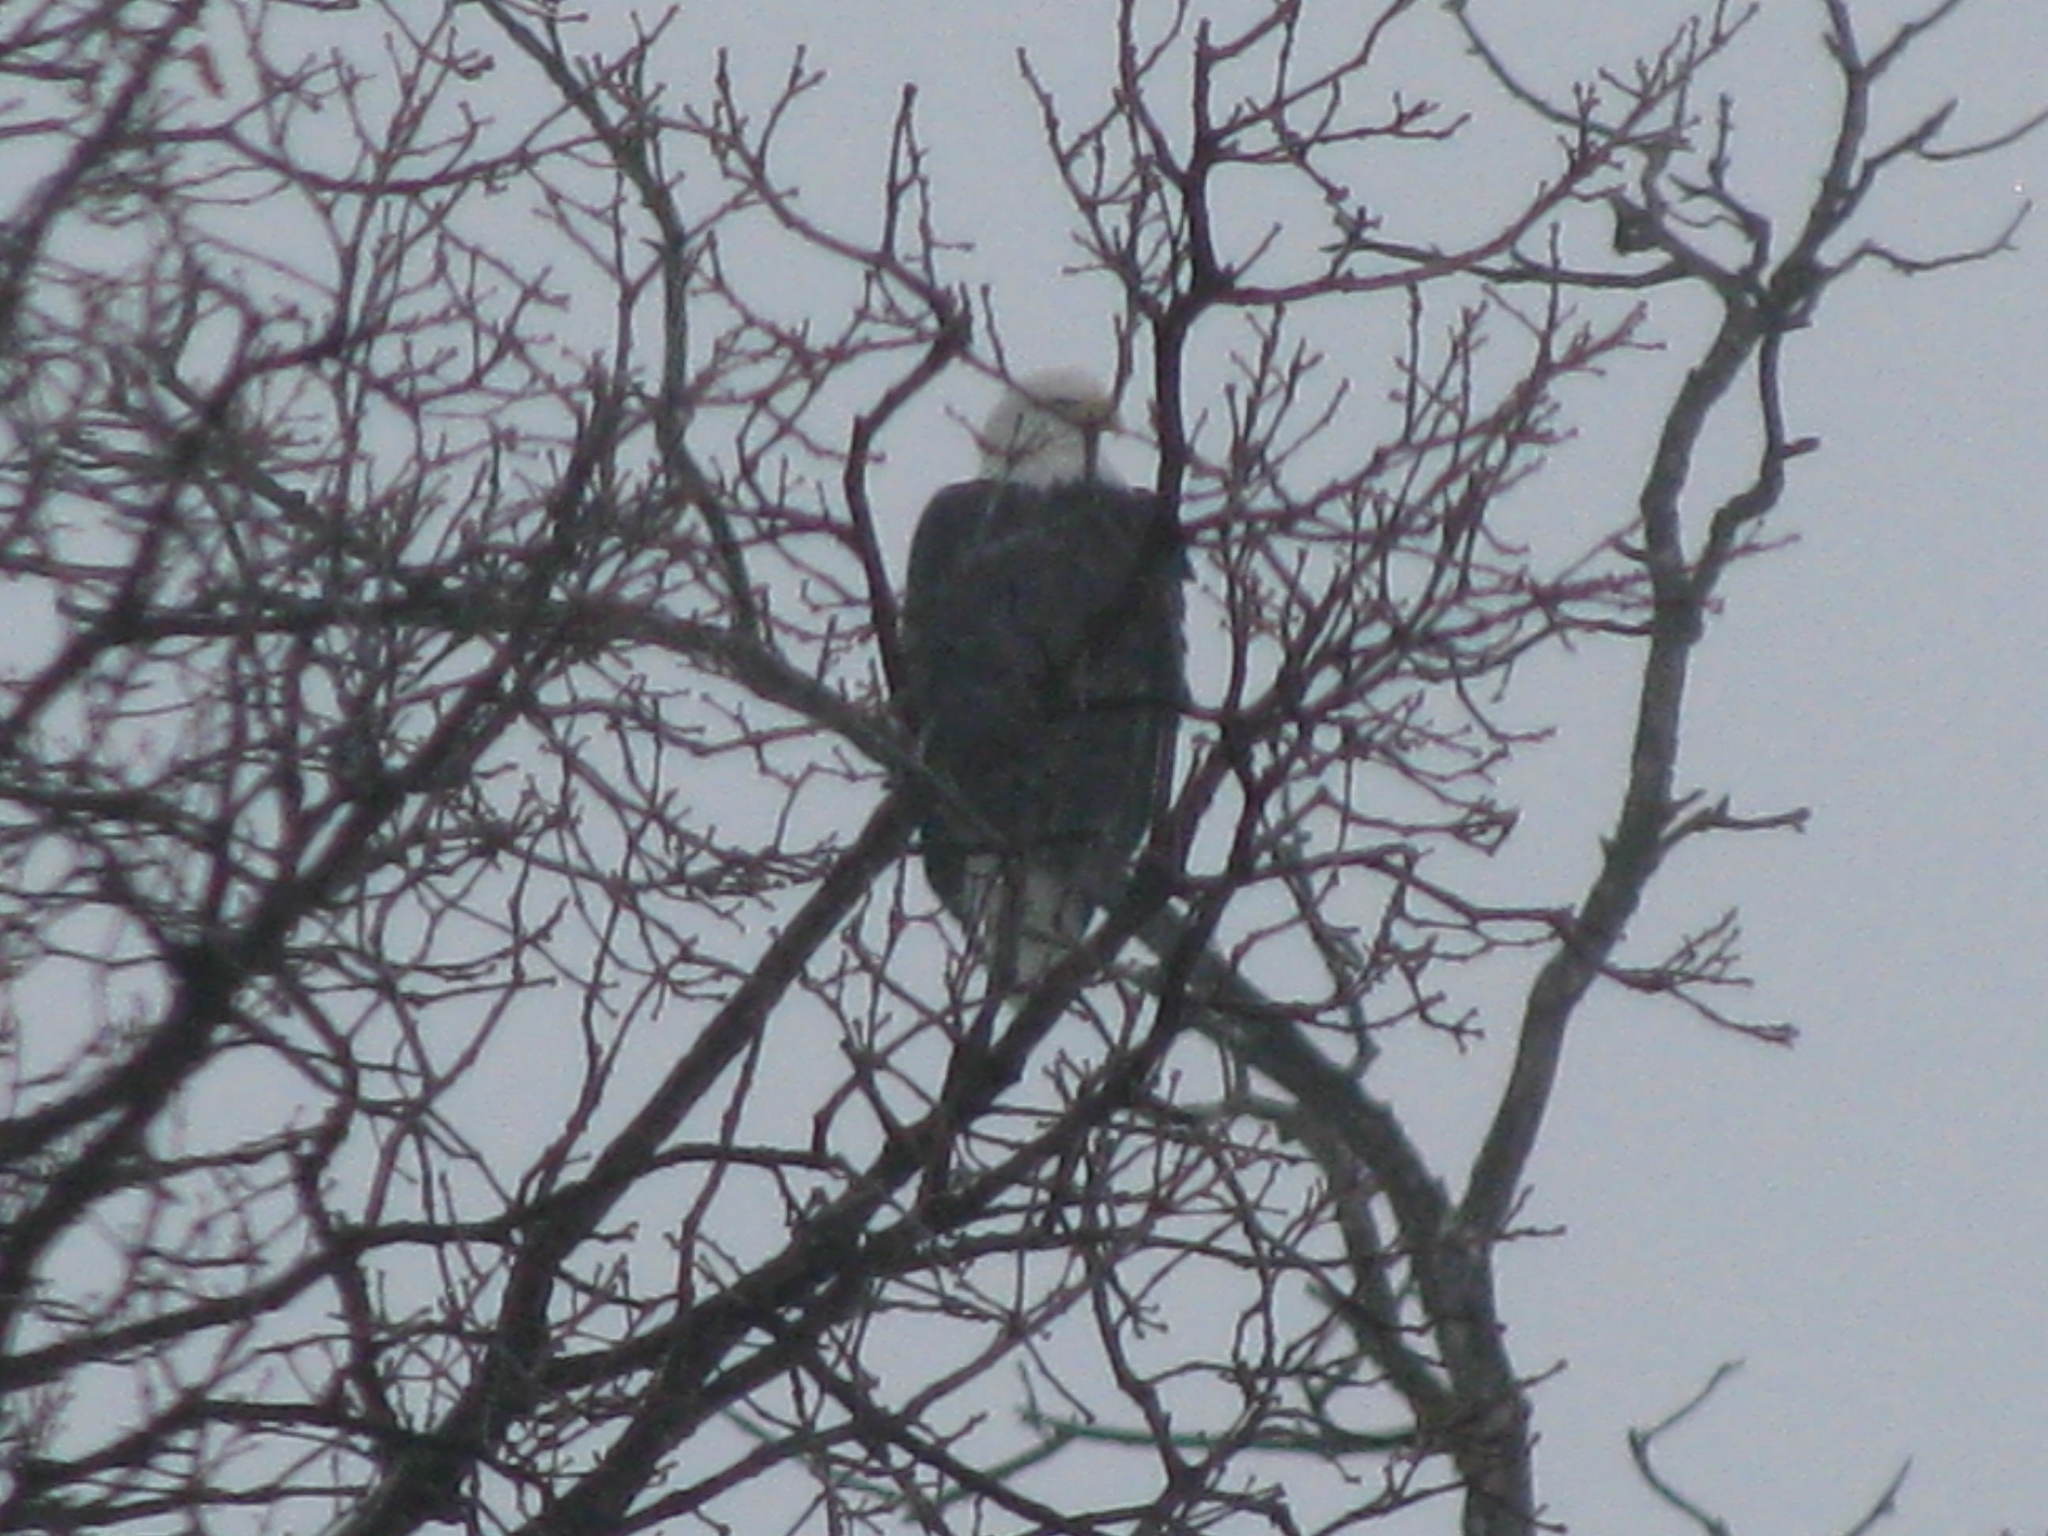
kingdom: Animalia
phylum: Chordata
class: Aves
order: Accipitriformes
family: Accipitridae
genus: Haliaeetus
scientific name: Haliaeetus leucocephalus
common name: Bald eagle
